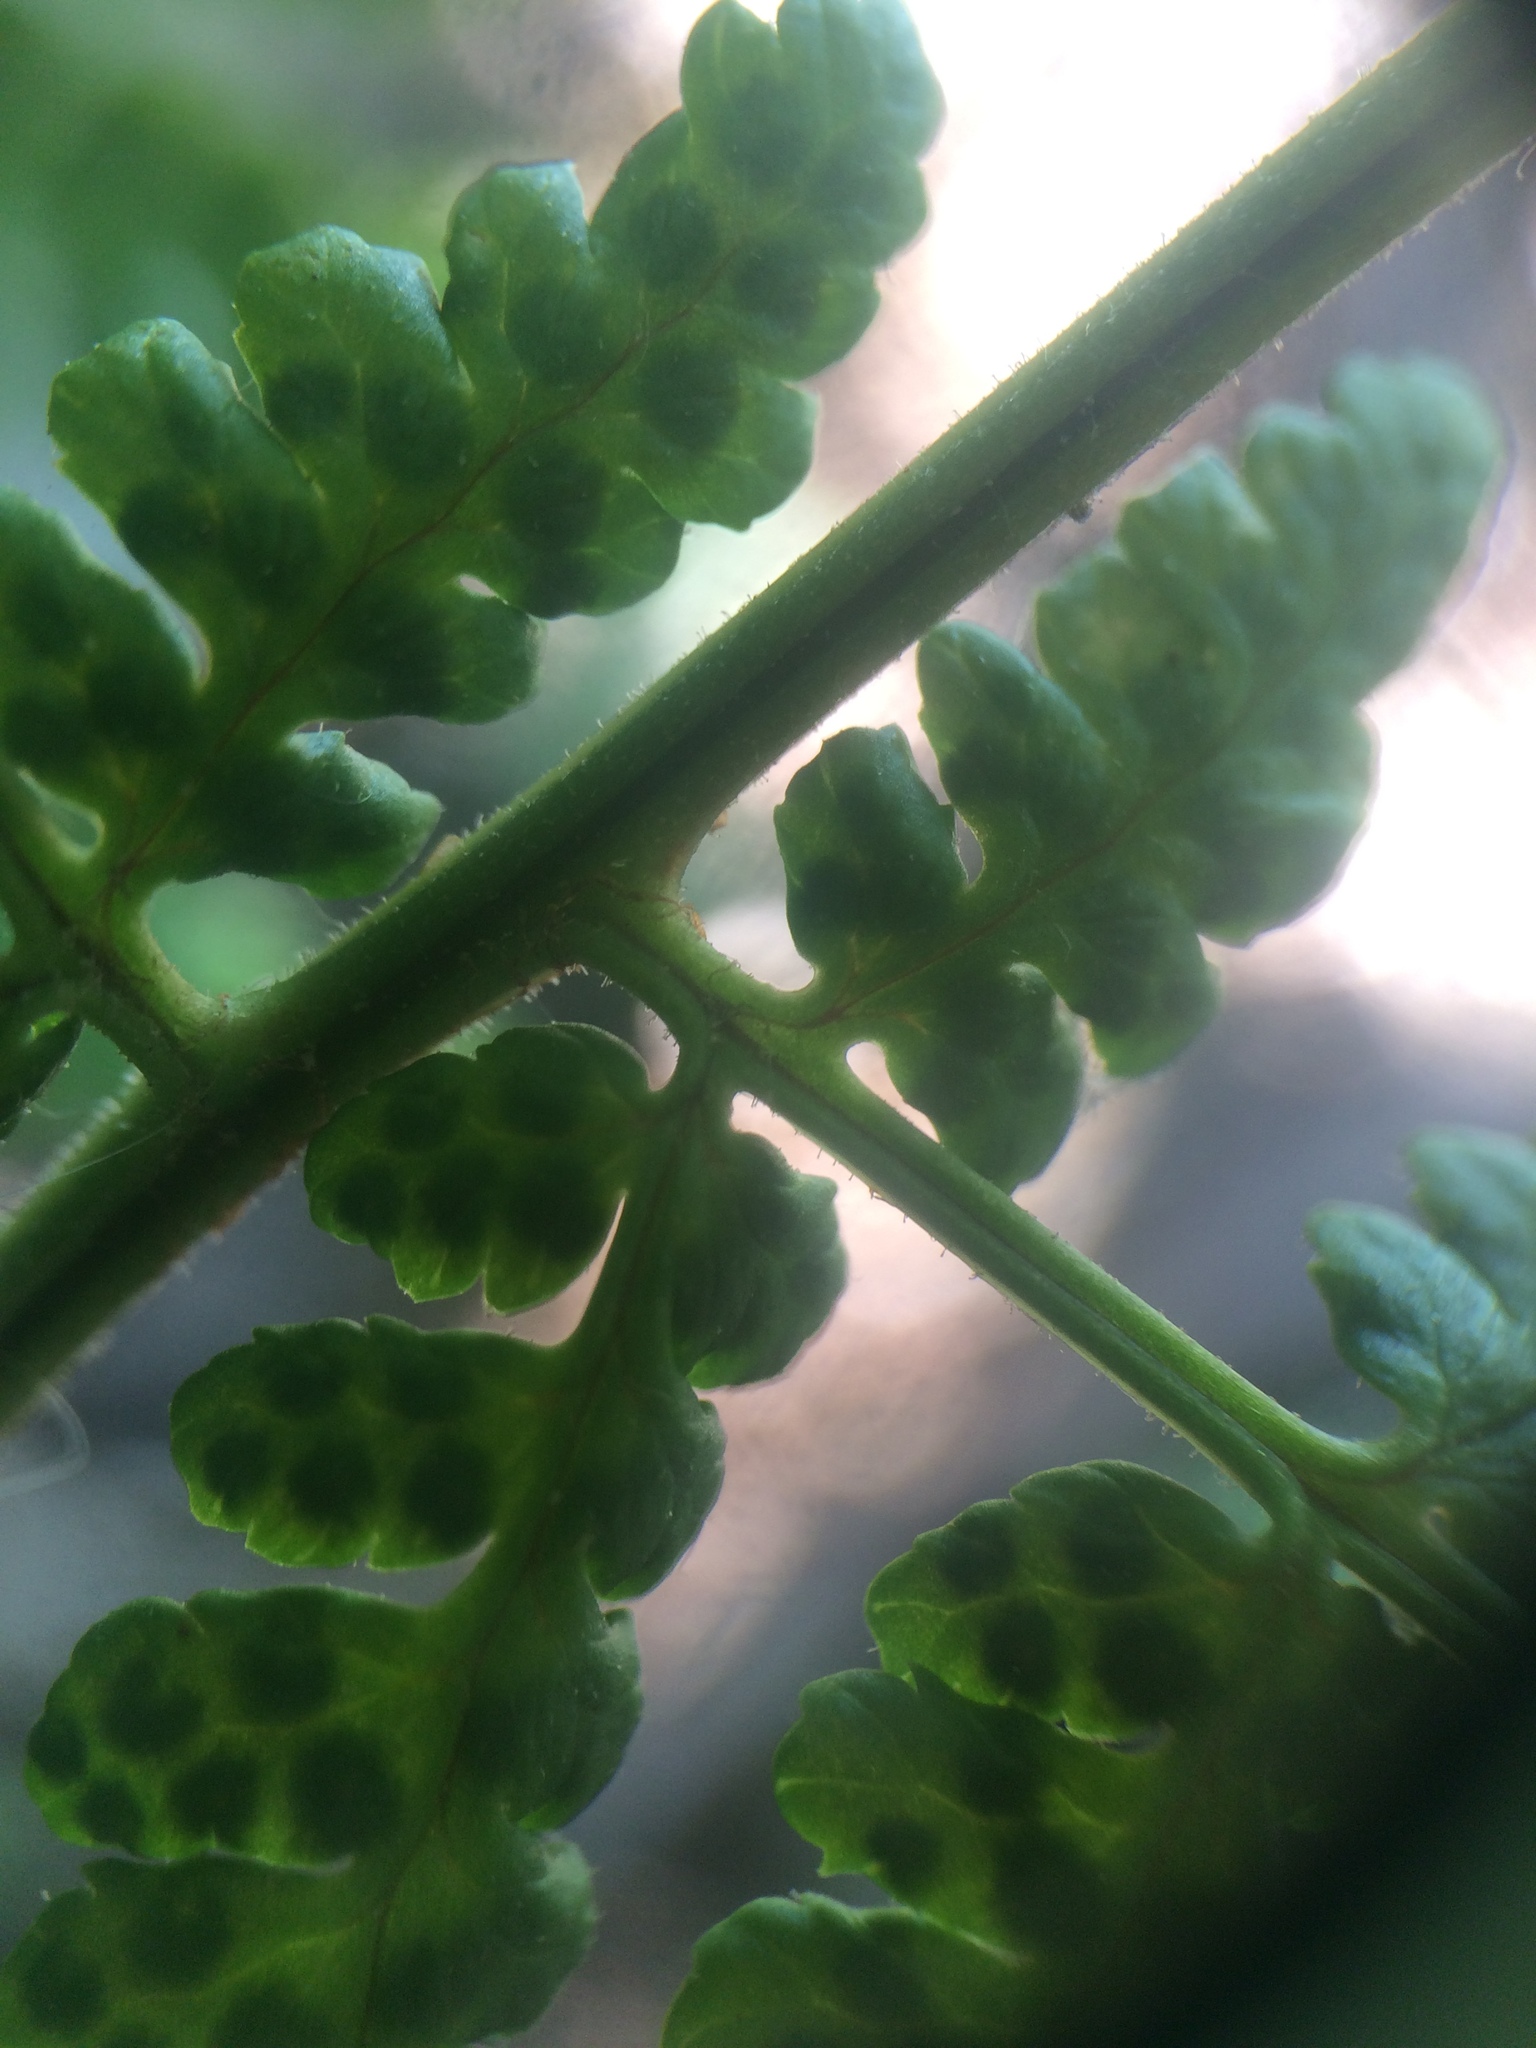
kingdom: Plantae
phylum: Tracheophyta
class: Polypodiopsida
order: Polypodiales
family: Dryopteridaceae
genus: Dryopteris
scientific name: Dryopteris intermedia
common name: Evergreen wood fern
